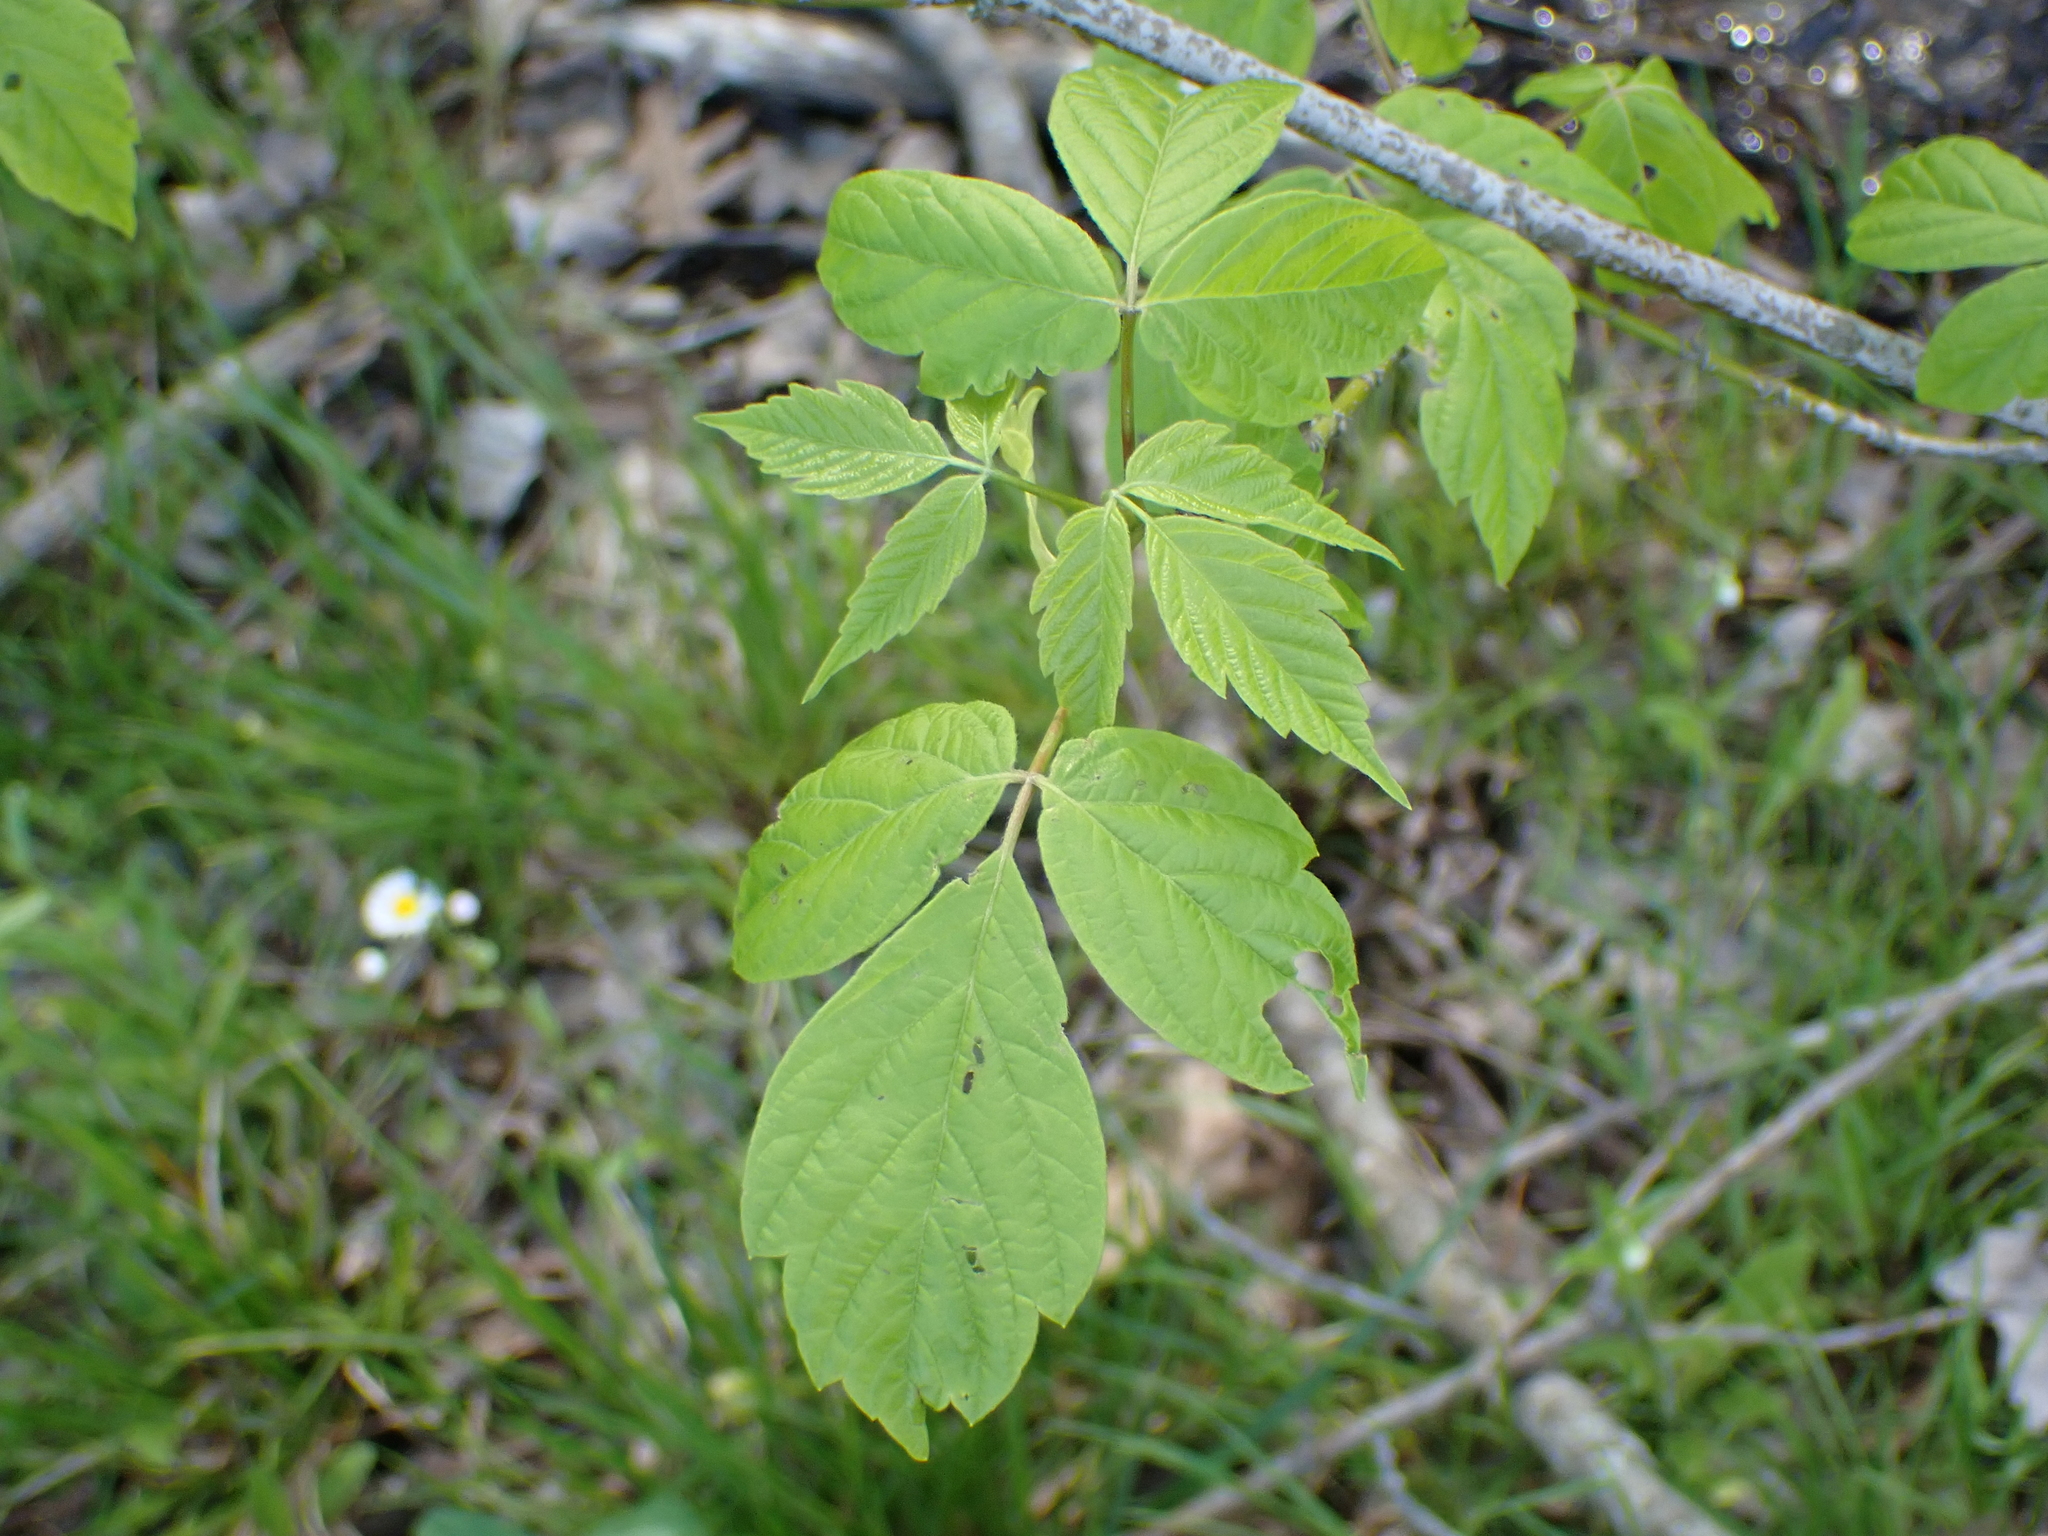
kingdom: Plantae
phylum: Tracheophyta
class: Magnoliopsida
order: Sapindales
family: Sapindaceae
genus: Acer
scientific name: Acer negundo
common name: Ashleaf maple
